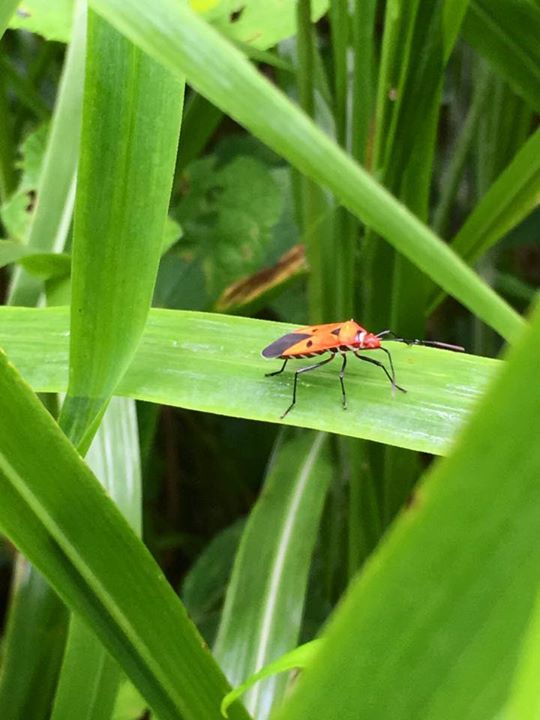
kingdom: Animalia
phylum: Arthropoda
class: Insecta
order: Hemiptera
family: Pyrrhocoridae
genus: Dysdercus
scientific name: Dysdercus cingulatus
